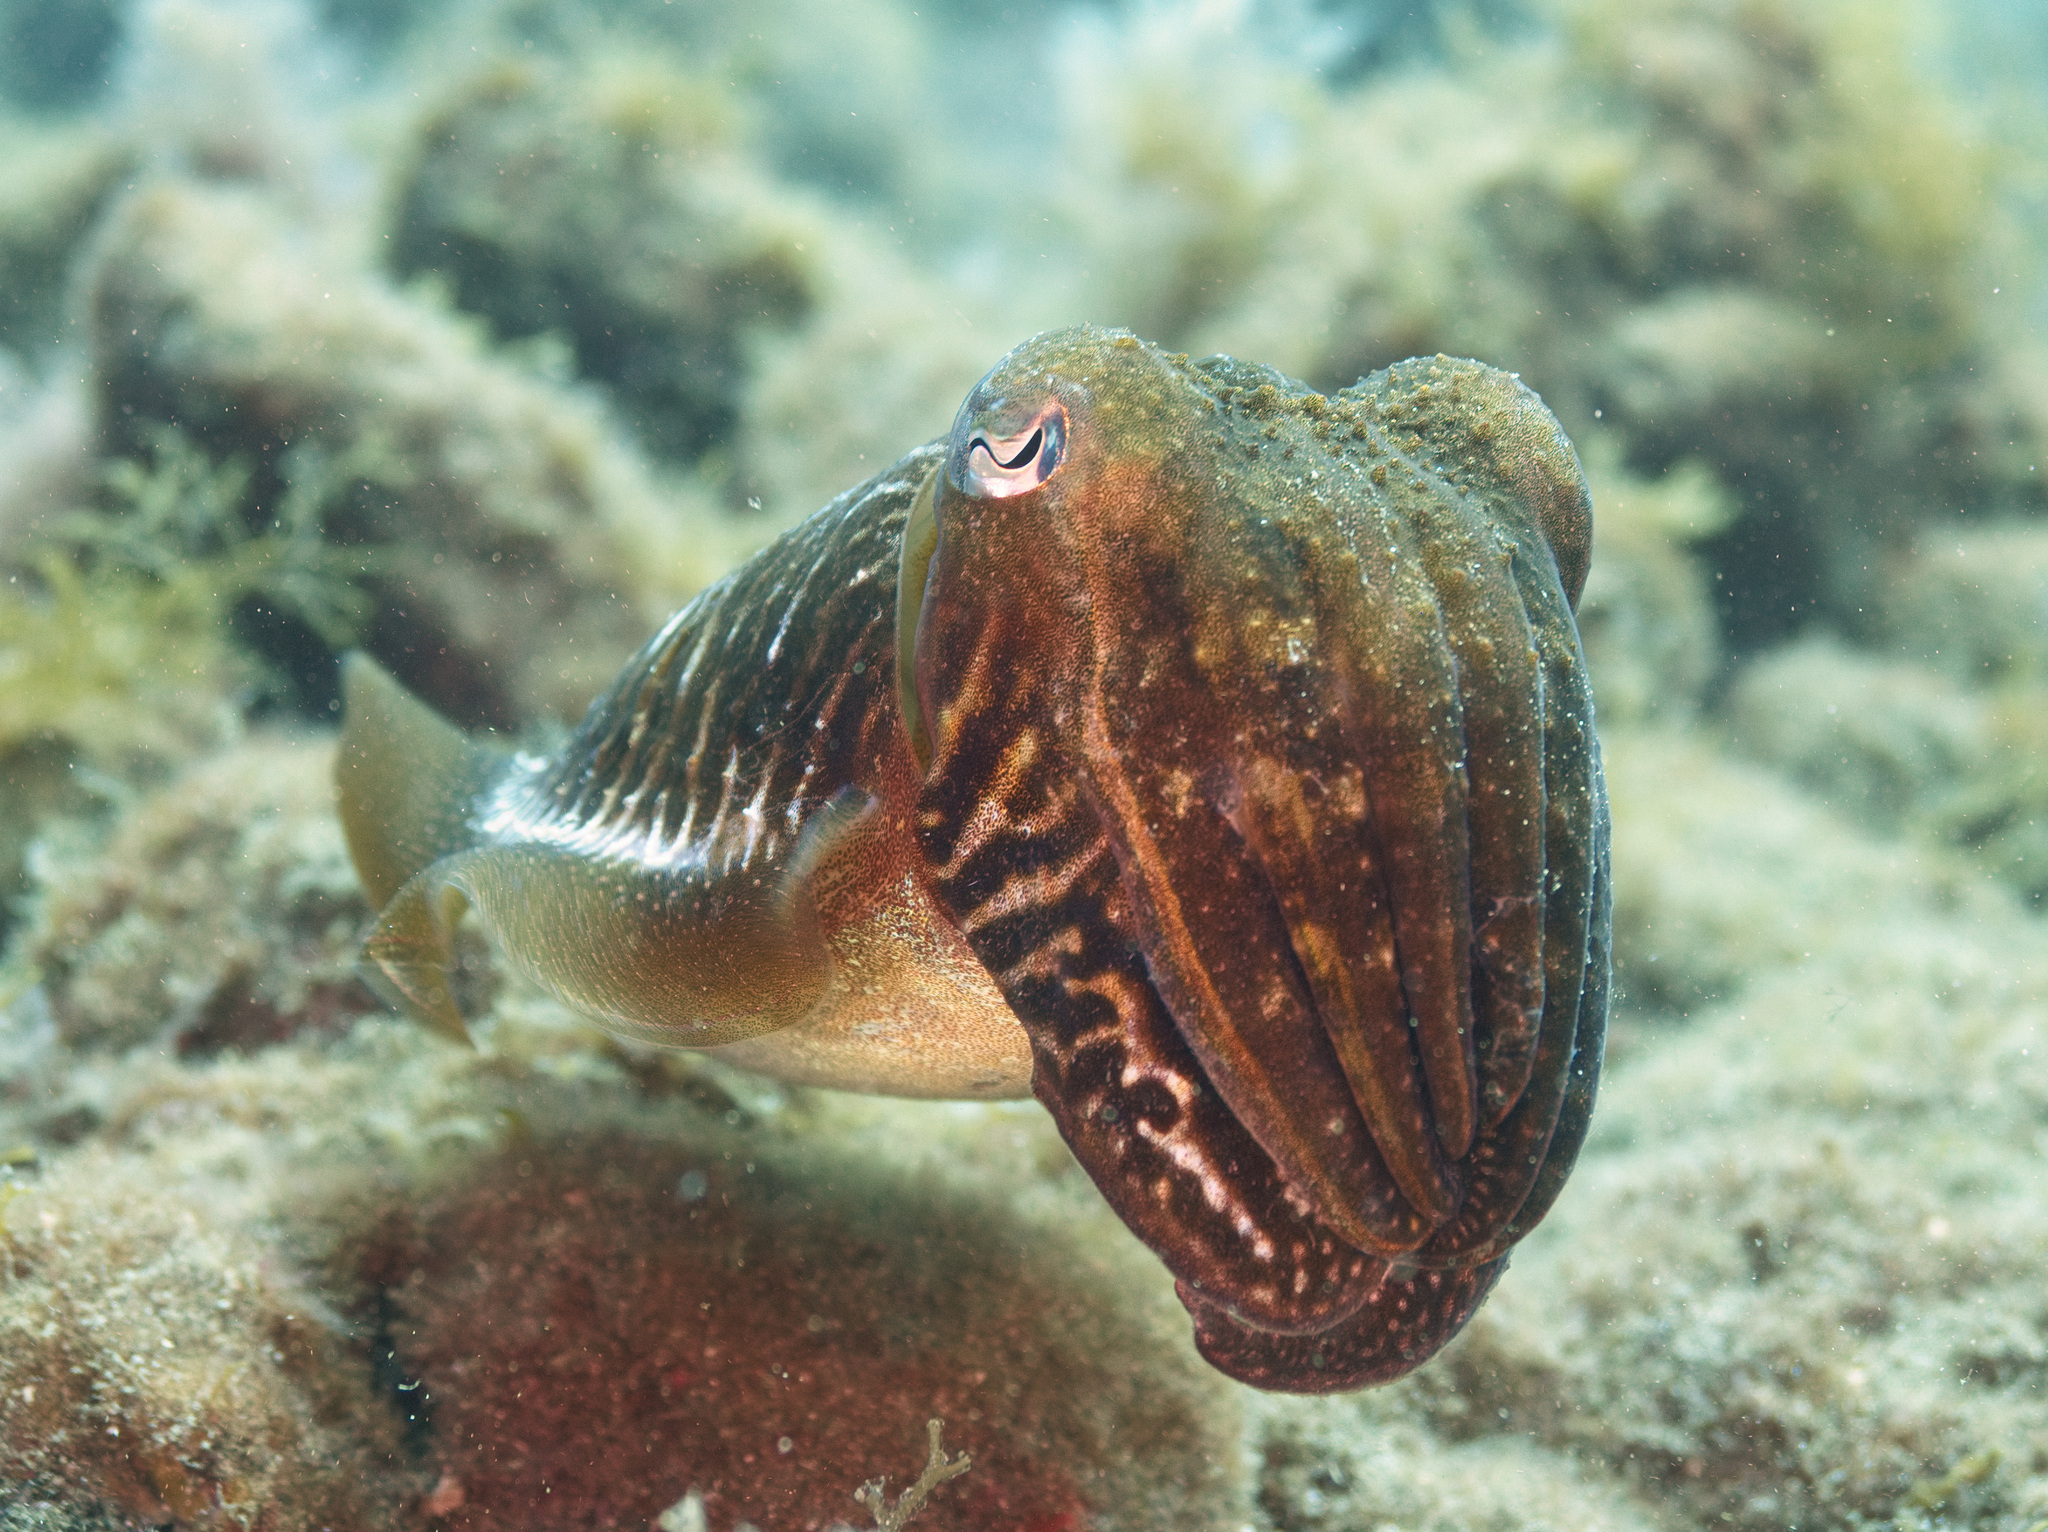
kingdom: Animalia
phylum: Mollusca
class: Cephalopoda
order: Sepiida
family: Sepiidae
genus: Sepia
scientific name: Sepia officinalis
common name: Common cuttlefish
